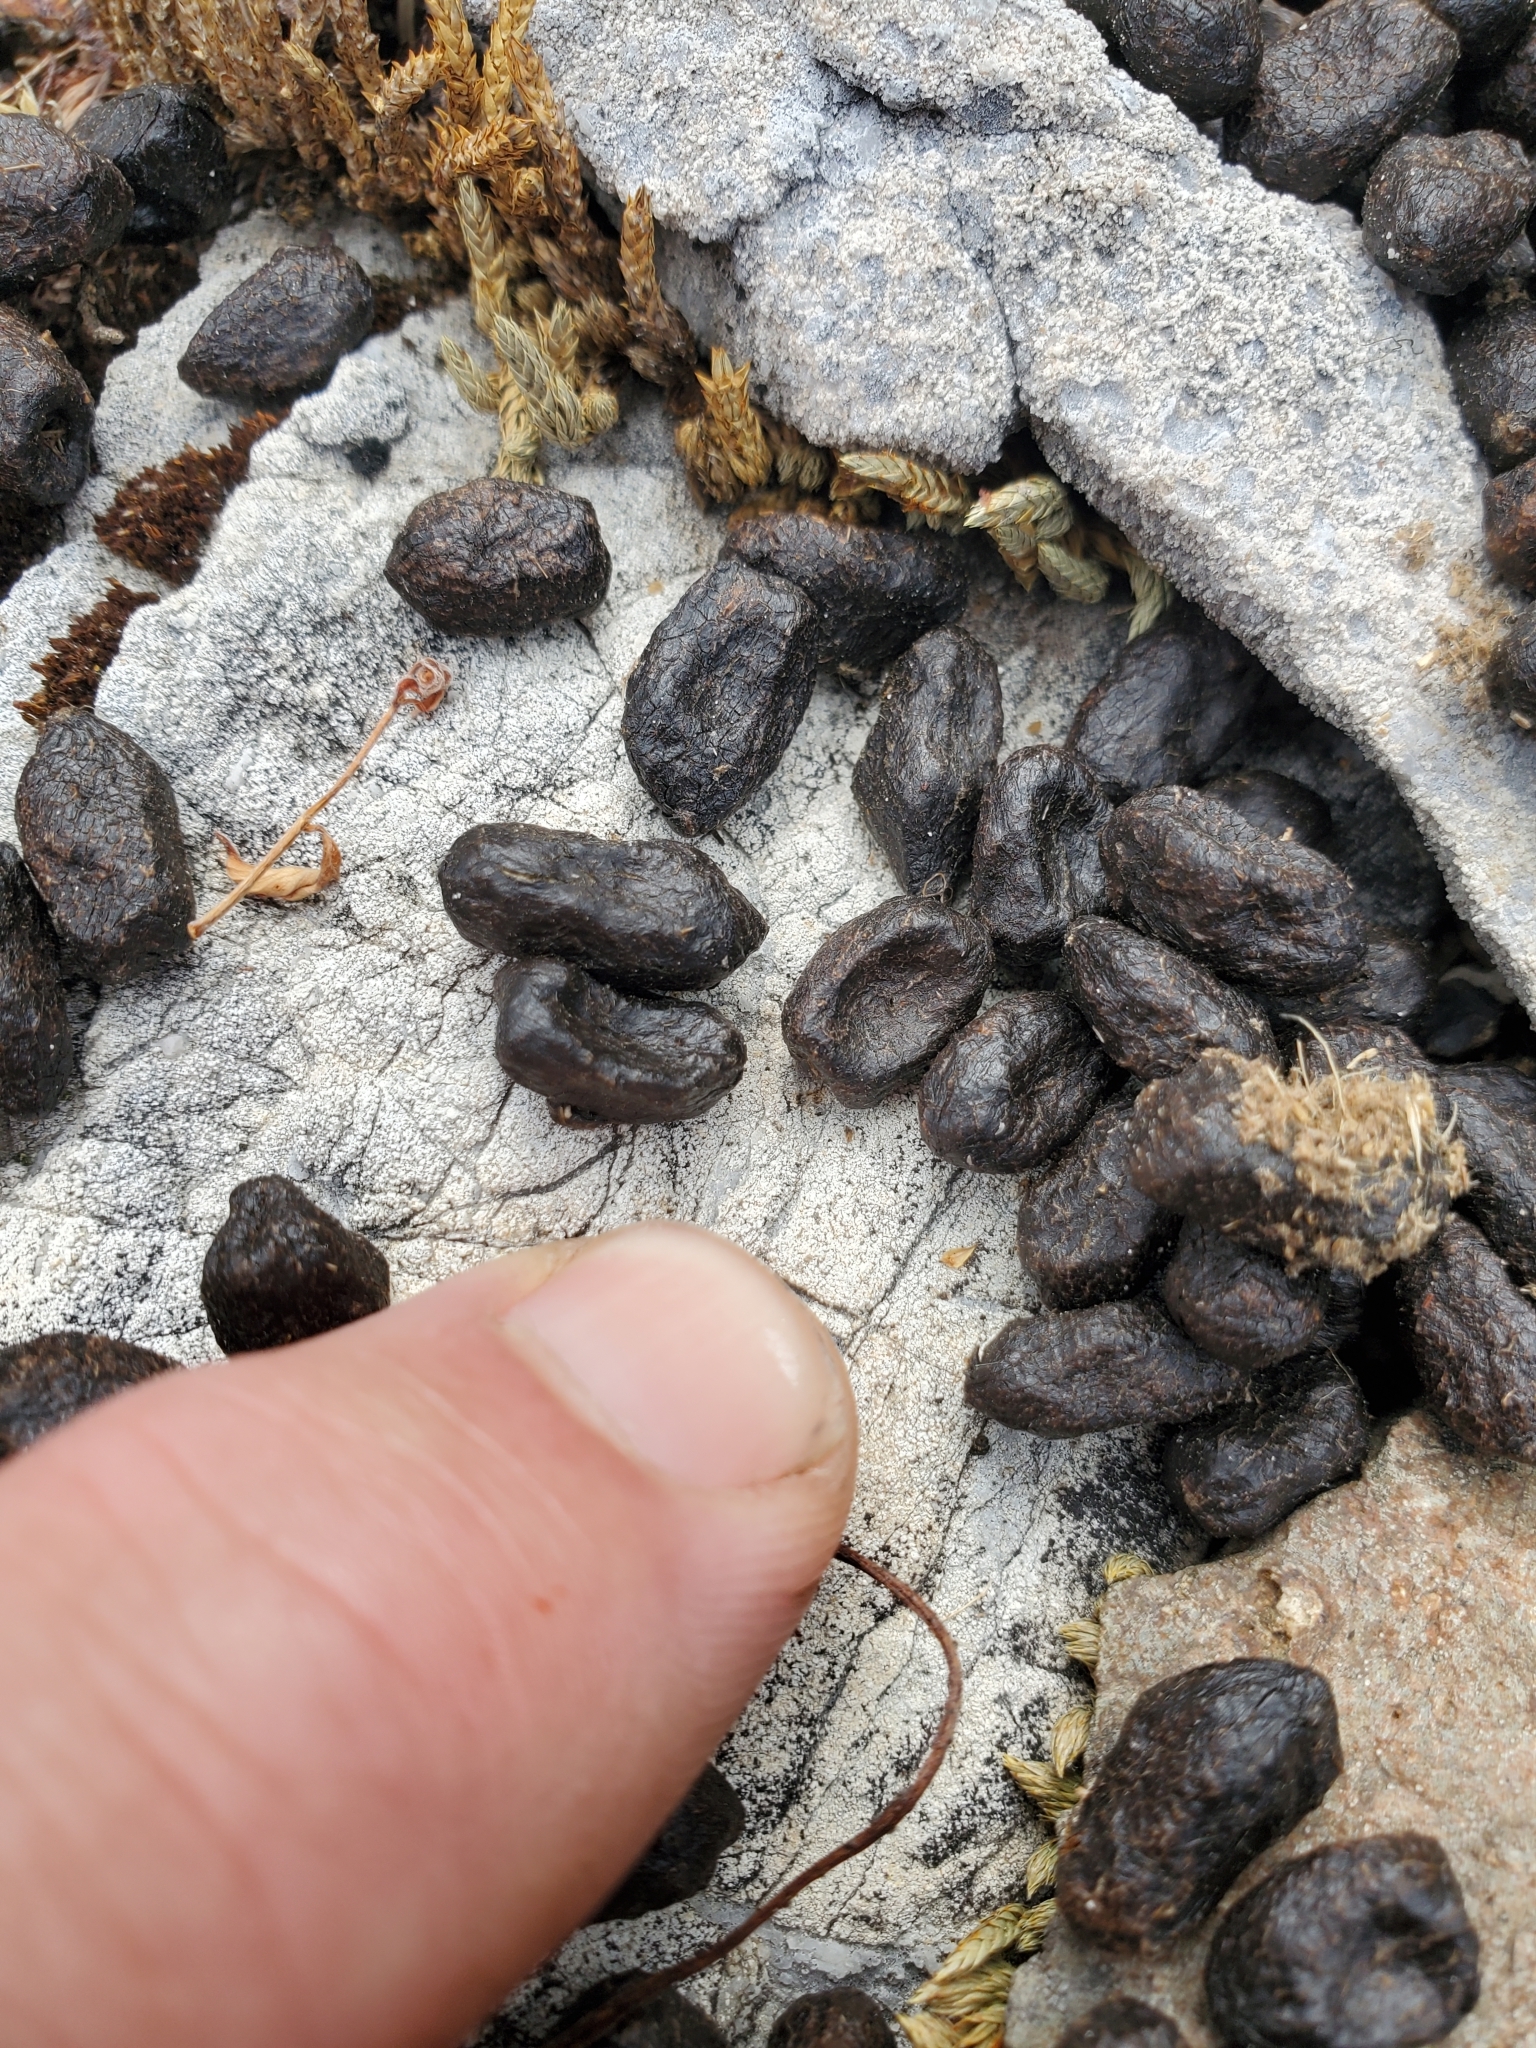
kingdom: Animalia
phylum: Chordata
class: Mammalia
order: Artiodactyla
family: Cervidae
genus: Odocoileus
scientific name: Odocoileus hemionus
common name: Mule deer
